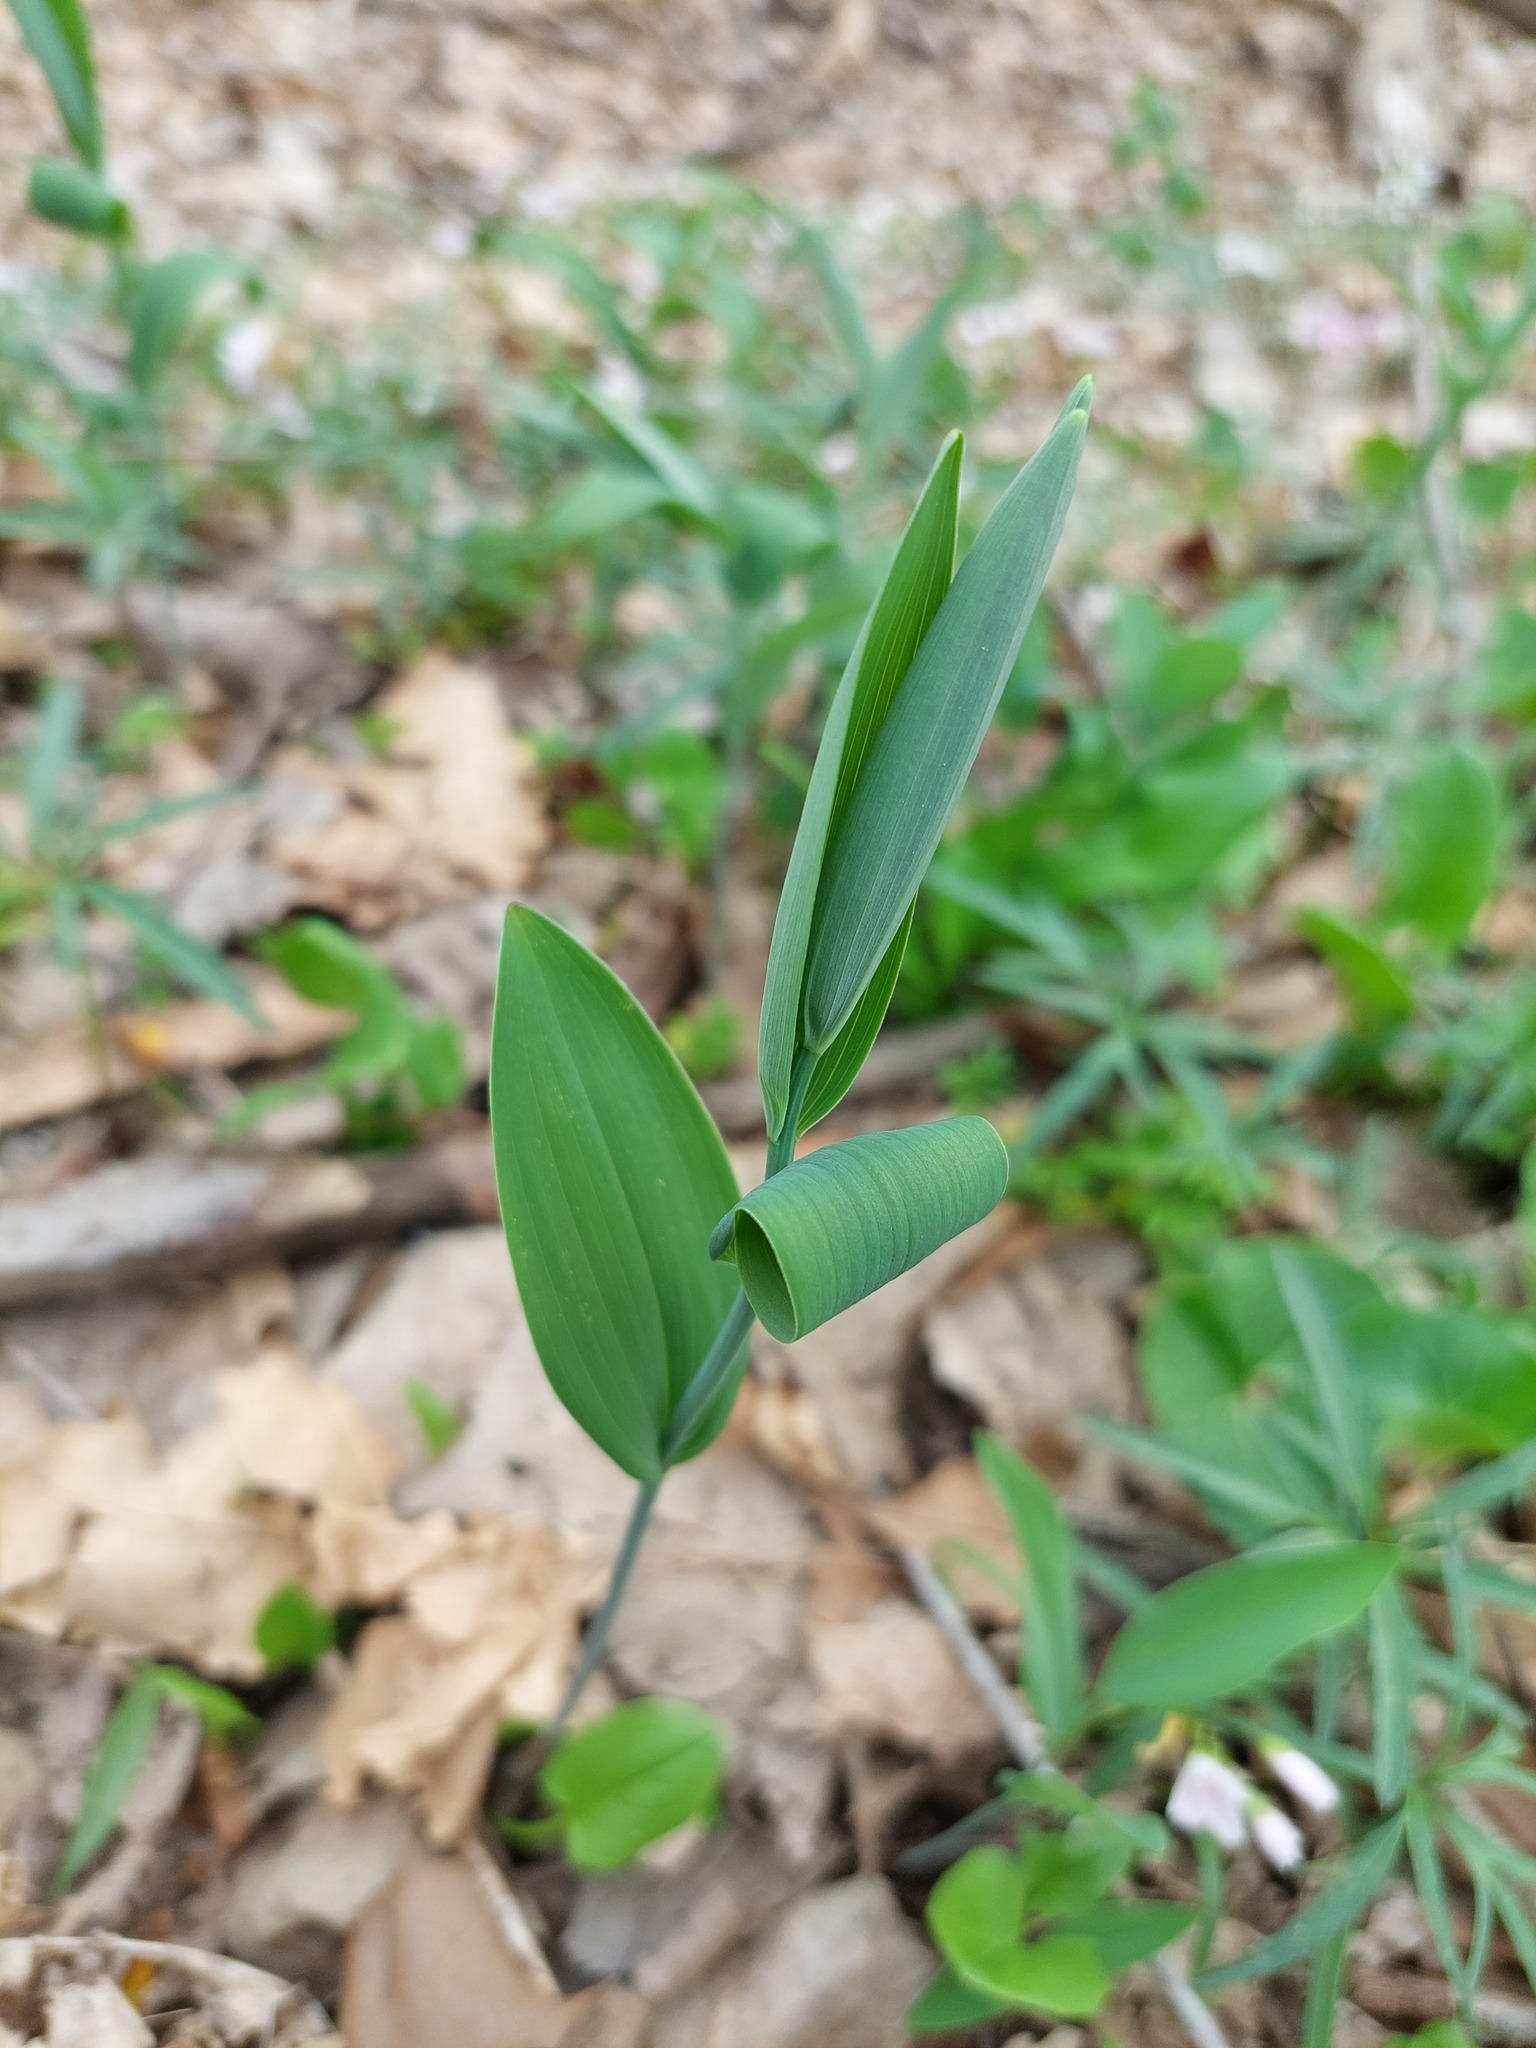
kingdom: Plantae
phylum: Tracheophyta
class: Liliopsida
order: Asparagales
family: Asparagaceae
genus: Polygonatum
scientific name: Polygonatum biflorum
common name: American solomon's-seal
